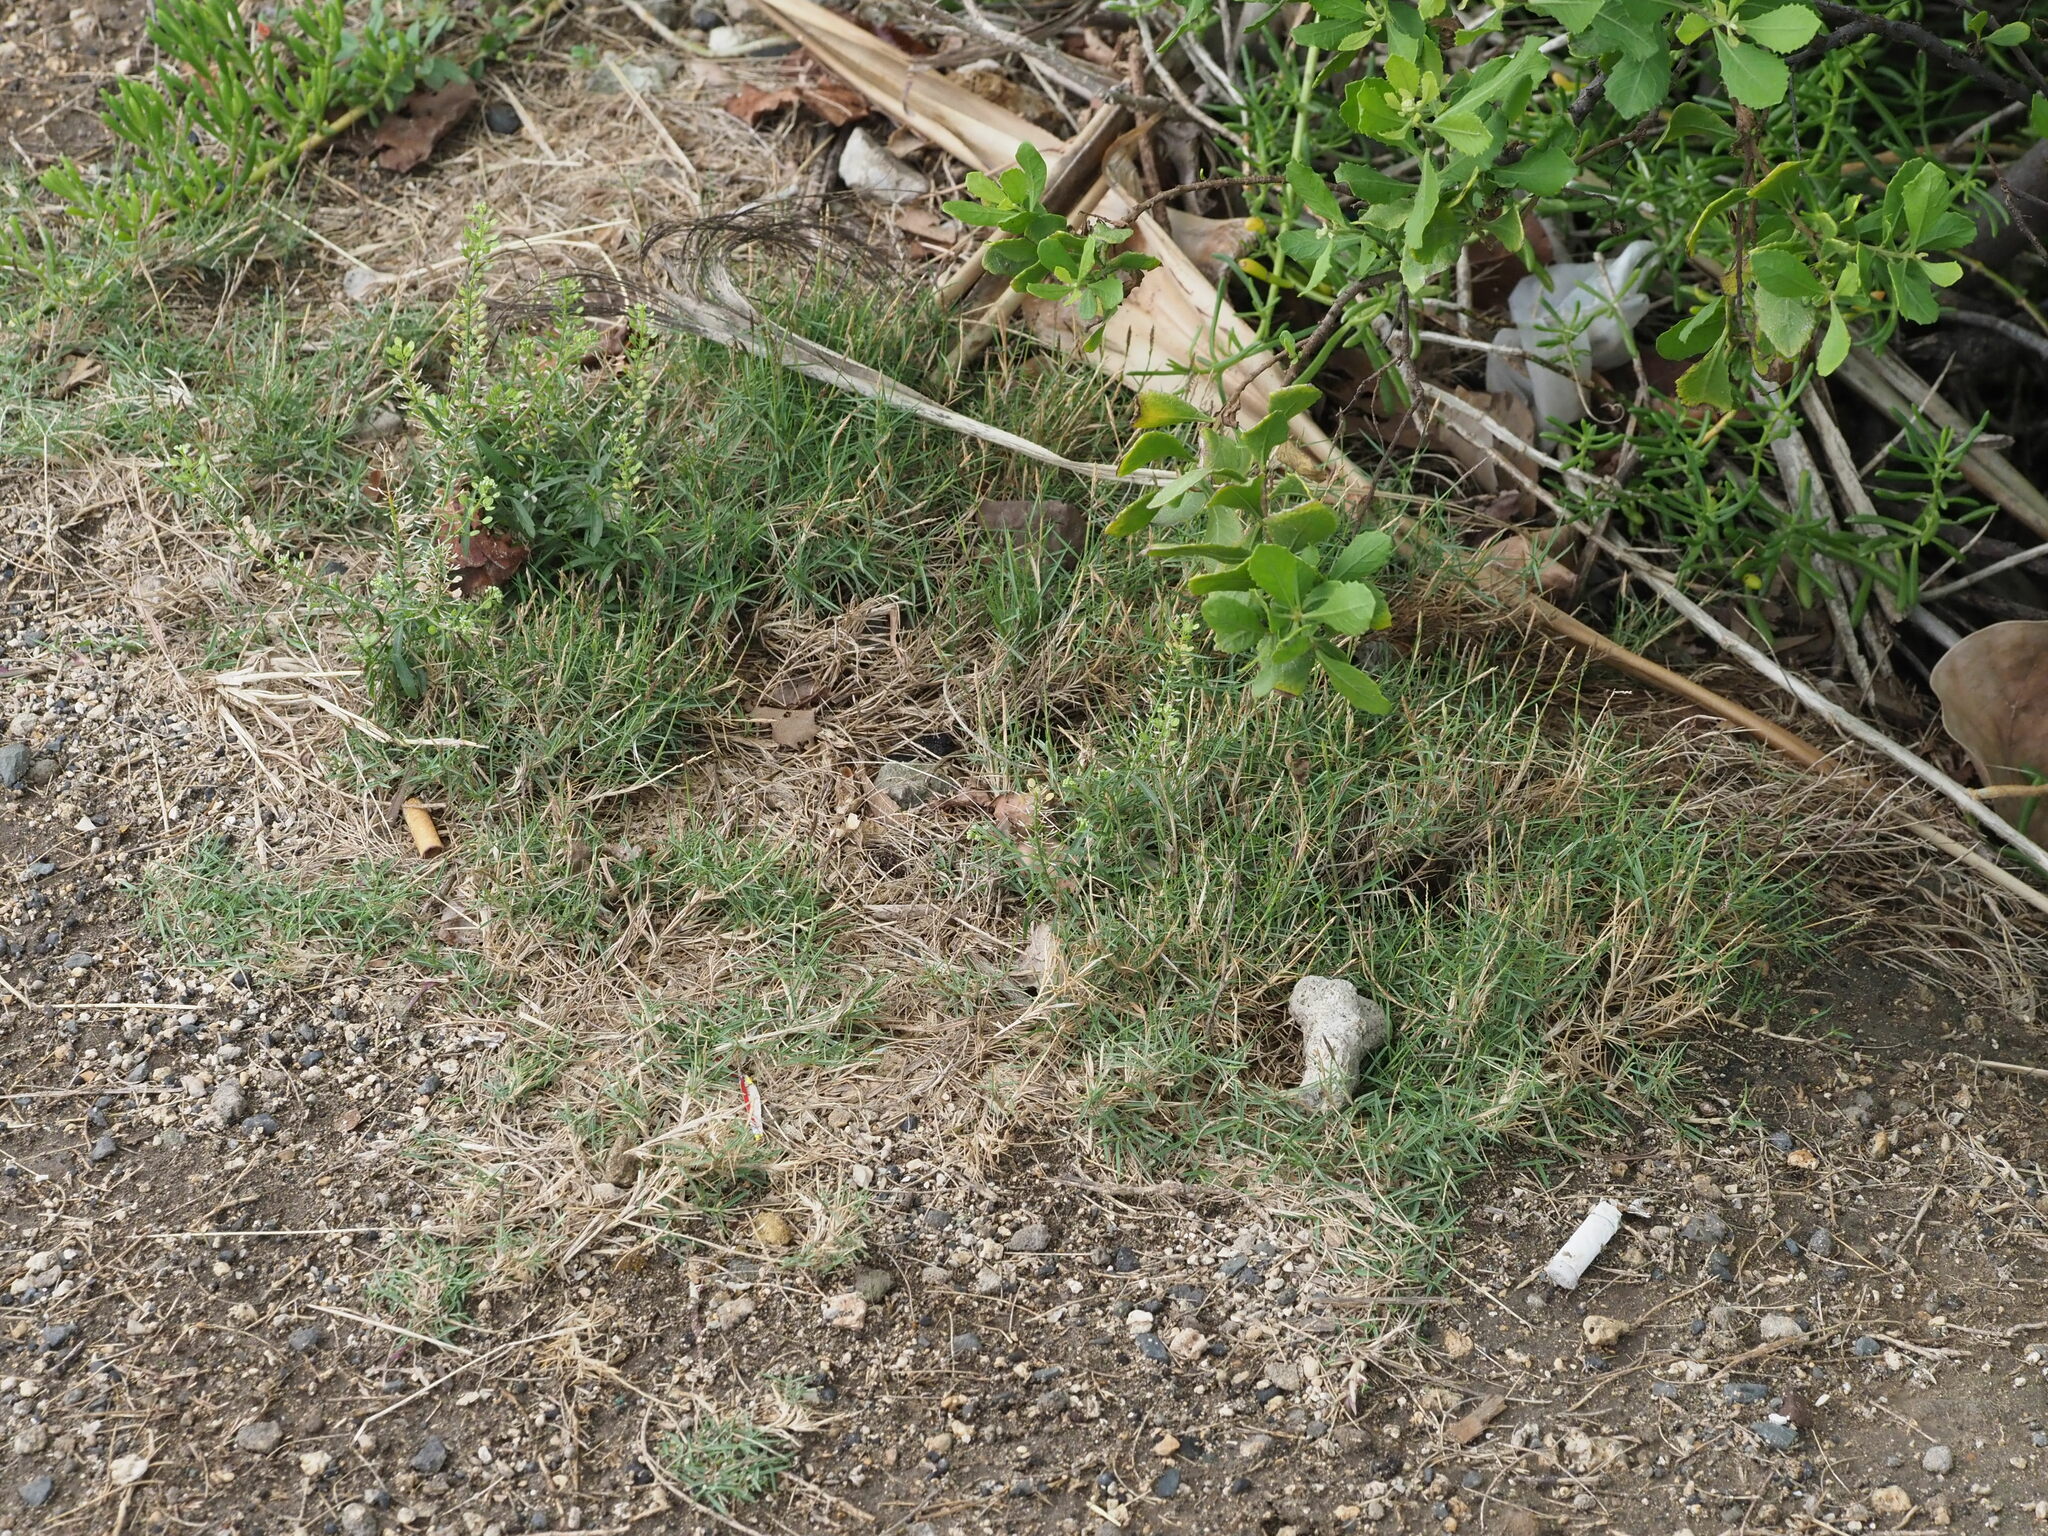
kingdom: Plantae
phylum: Tracheophyta
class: Liliopsida
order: Poales
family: Poaceae
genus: Zoysia
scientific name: Zoysia matrella
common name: Manila grass
